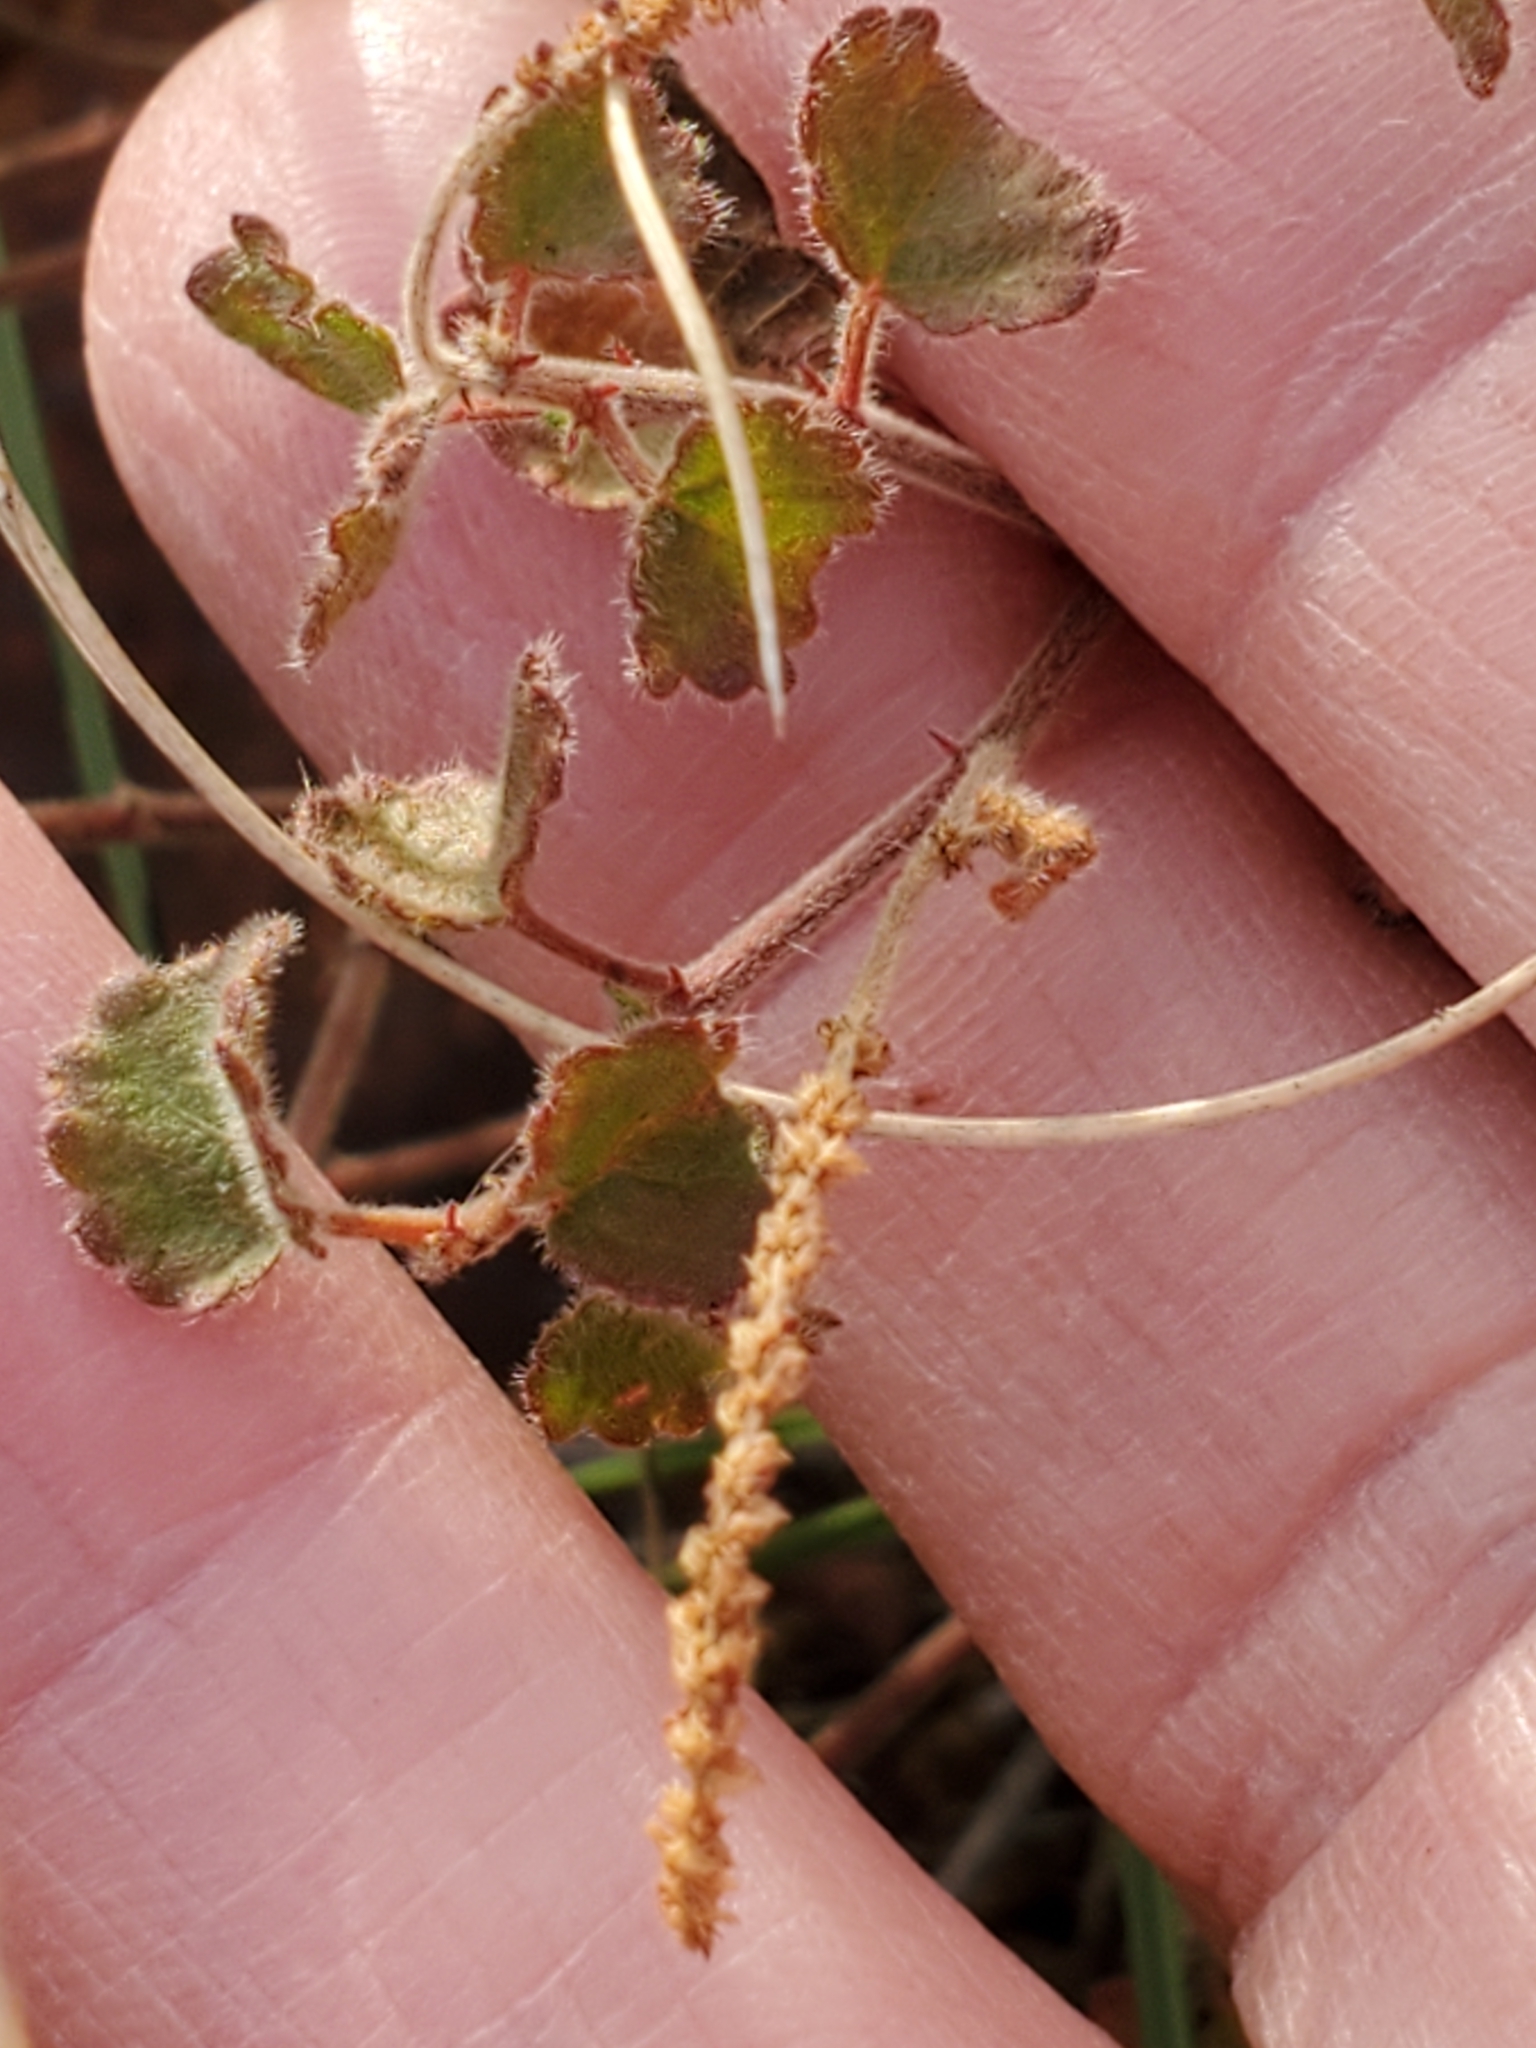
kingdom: Plantae
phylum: Tracheophyta
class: Magnoliopsida
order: Malpighiales
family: Euphorbiaceae
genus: Acalypha
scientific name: Acalypha monostachya
